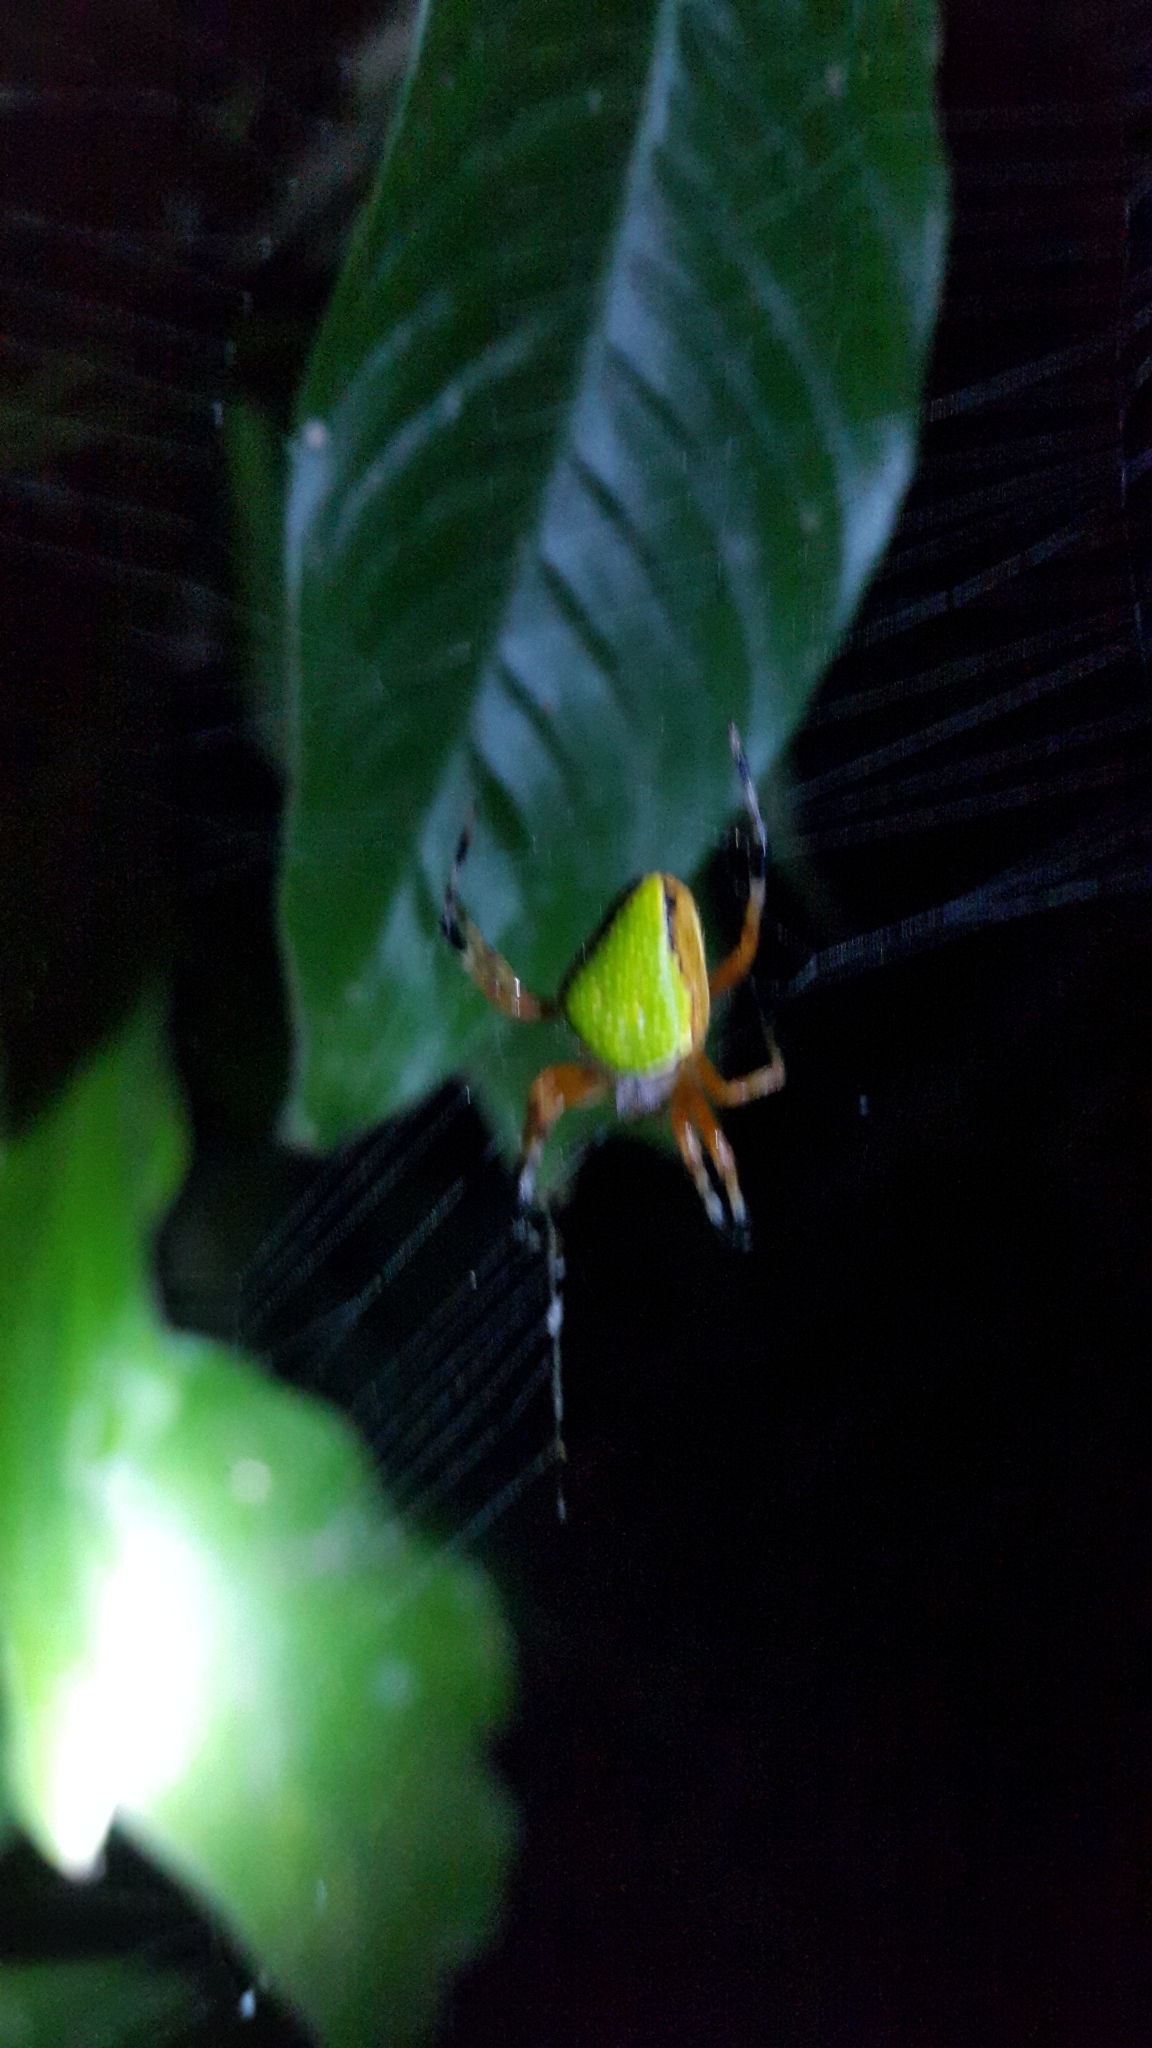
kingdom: Animalia
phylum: Arthropoda
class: Arachnida
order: Araneae
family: Araneidae
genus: Eriophora
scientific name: Eriophora nephiloides
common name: Orb weavers
